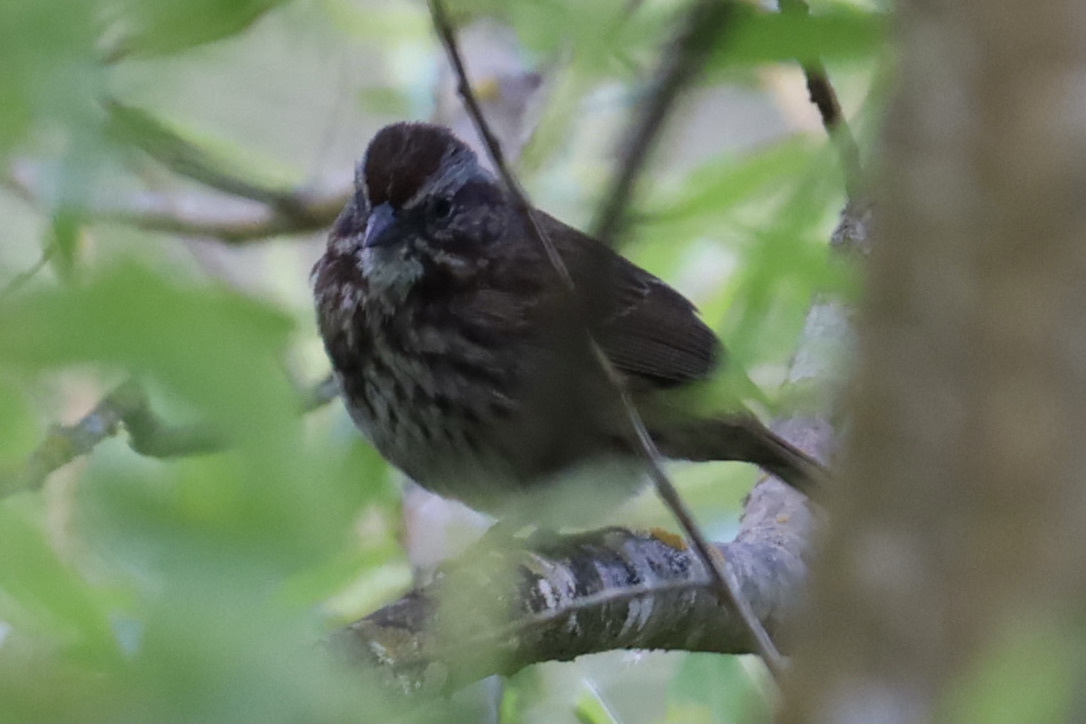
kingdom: Animalia
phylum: Chordata
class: Aves
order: Passeriformes
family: Passerellidae
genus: Melospiza
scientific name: Melospiza melodia
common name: Song sparrow
